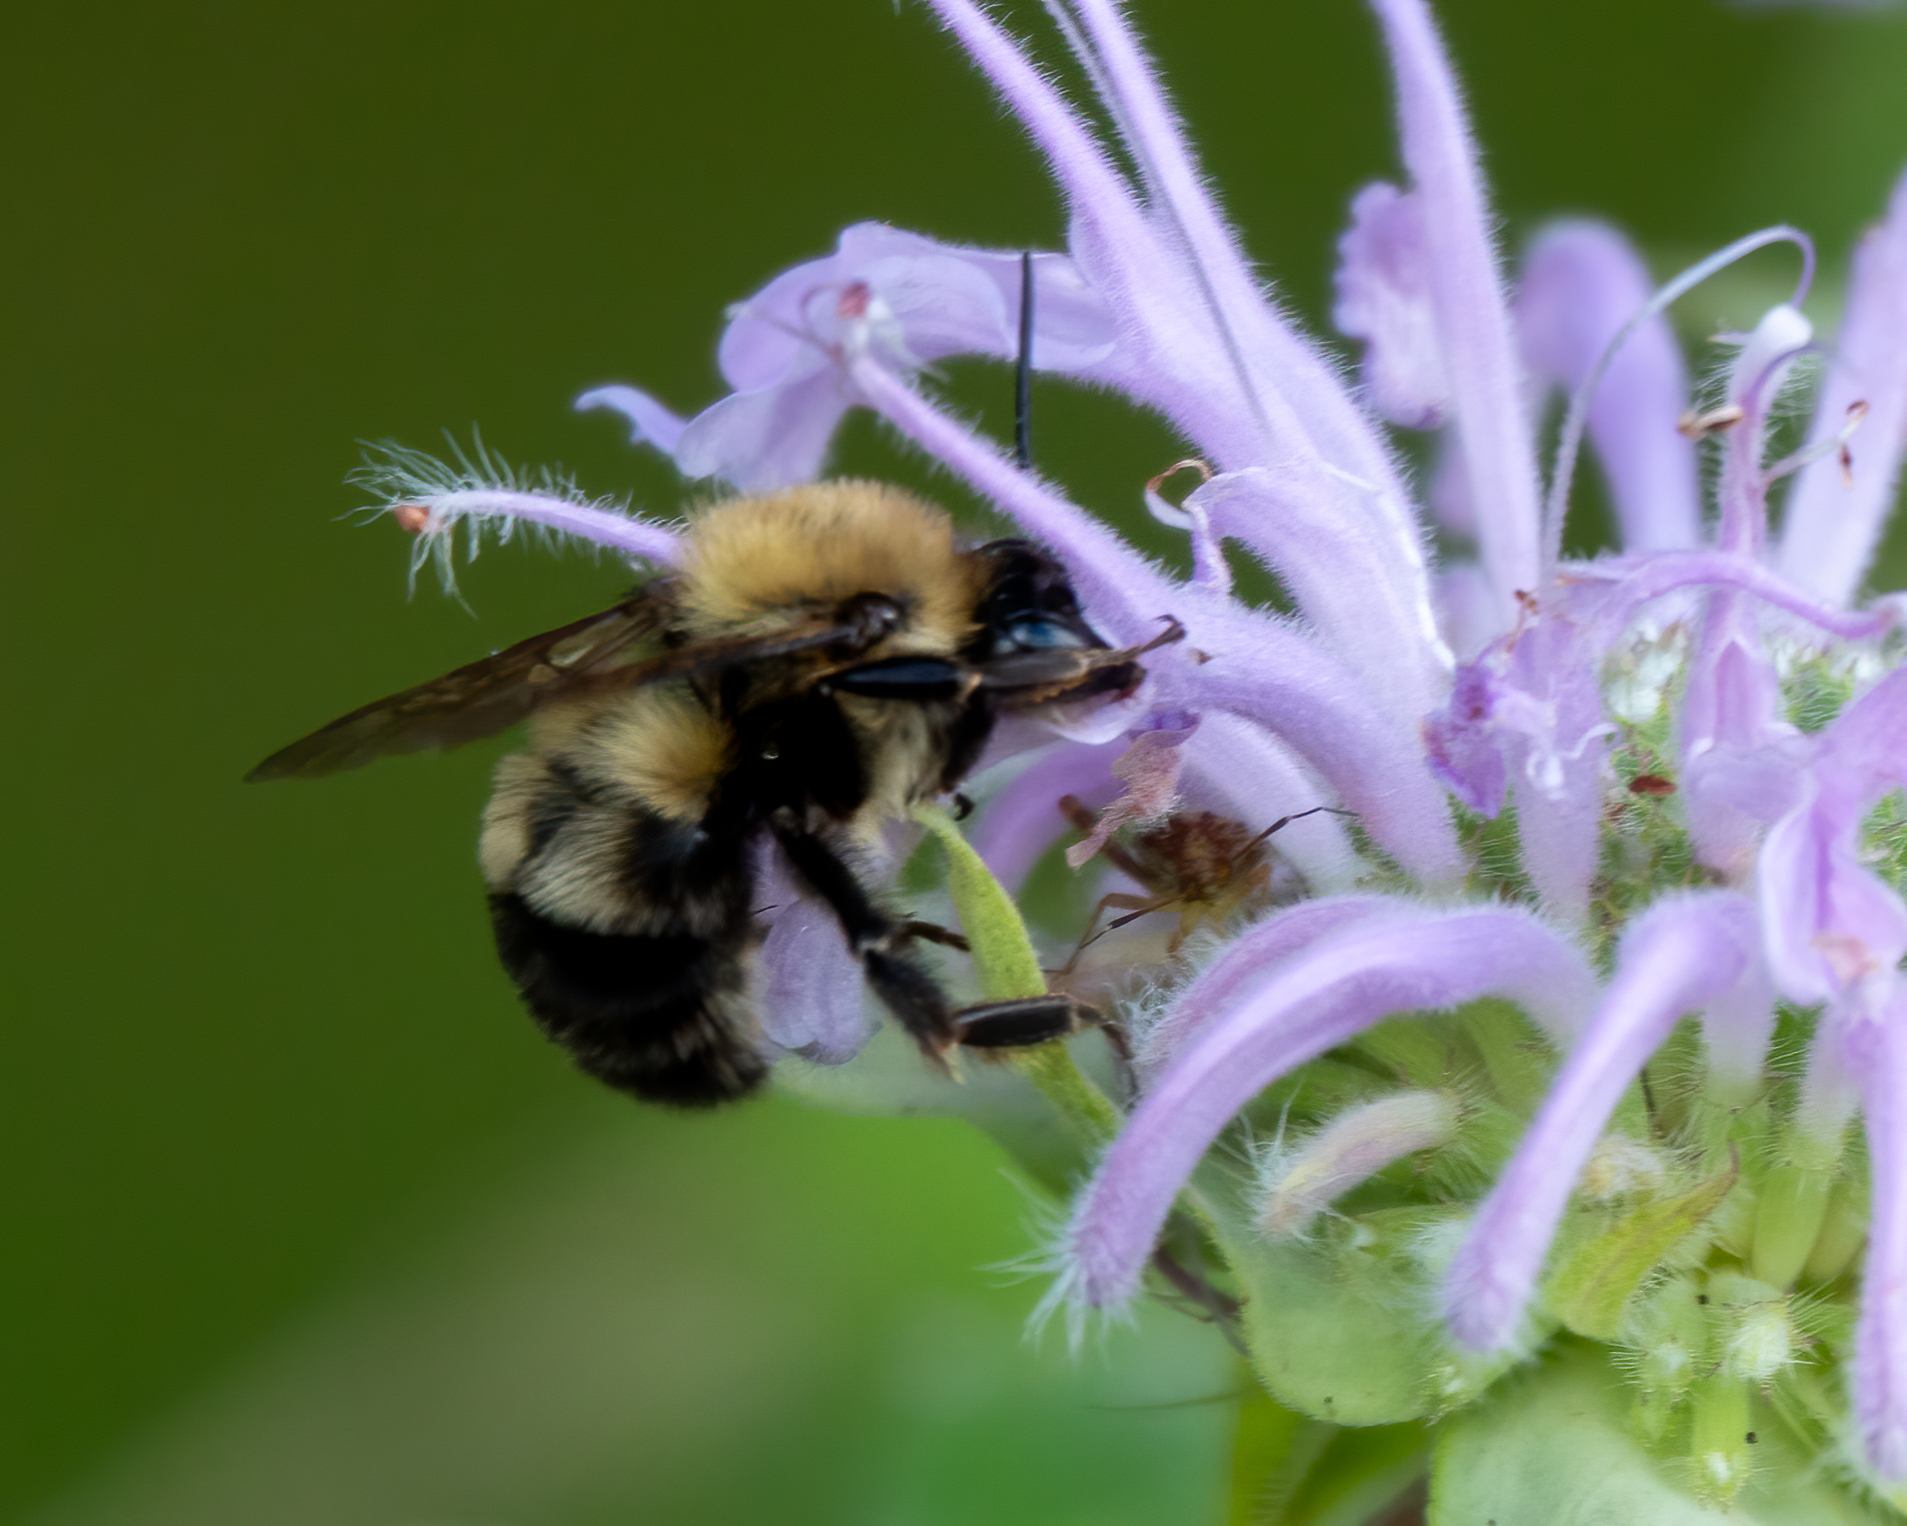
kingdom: Animalia
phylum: Arthropoda
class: Insecta
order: Hymenoptera
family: Apidae
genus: Bombus
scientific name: Bombus bimaculatus
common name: Two-spotted bumble bee
